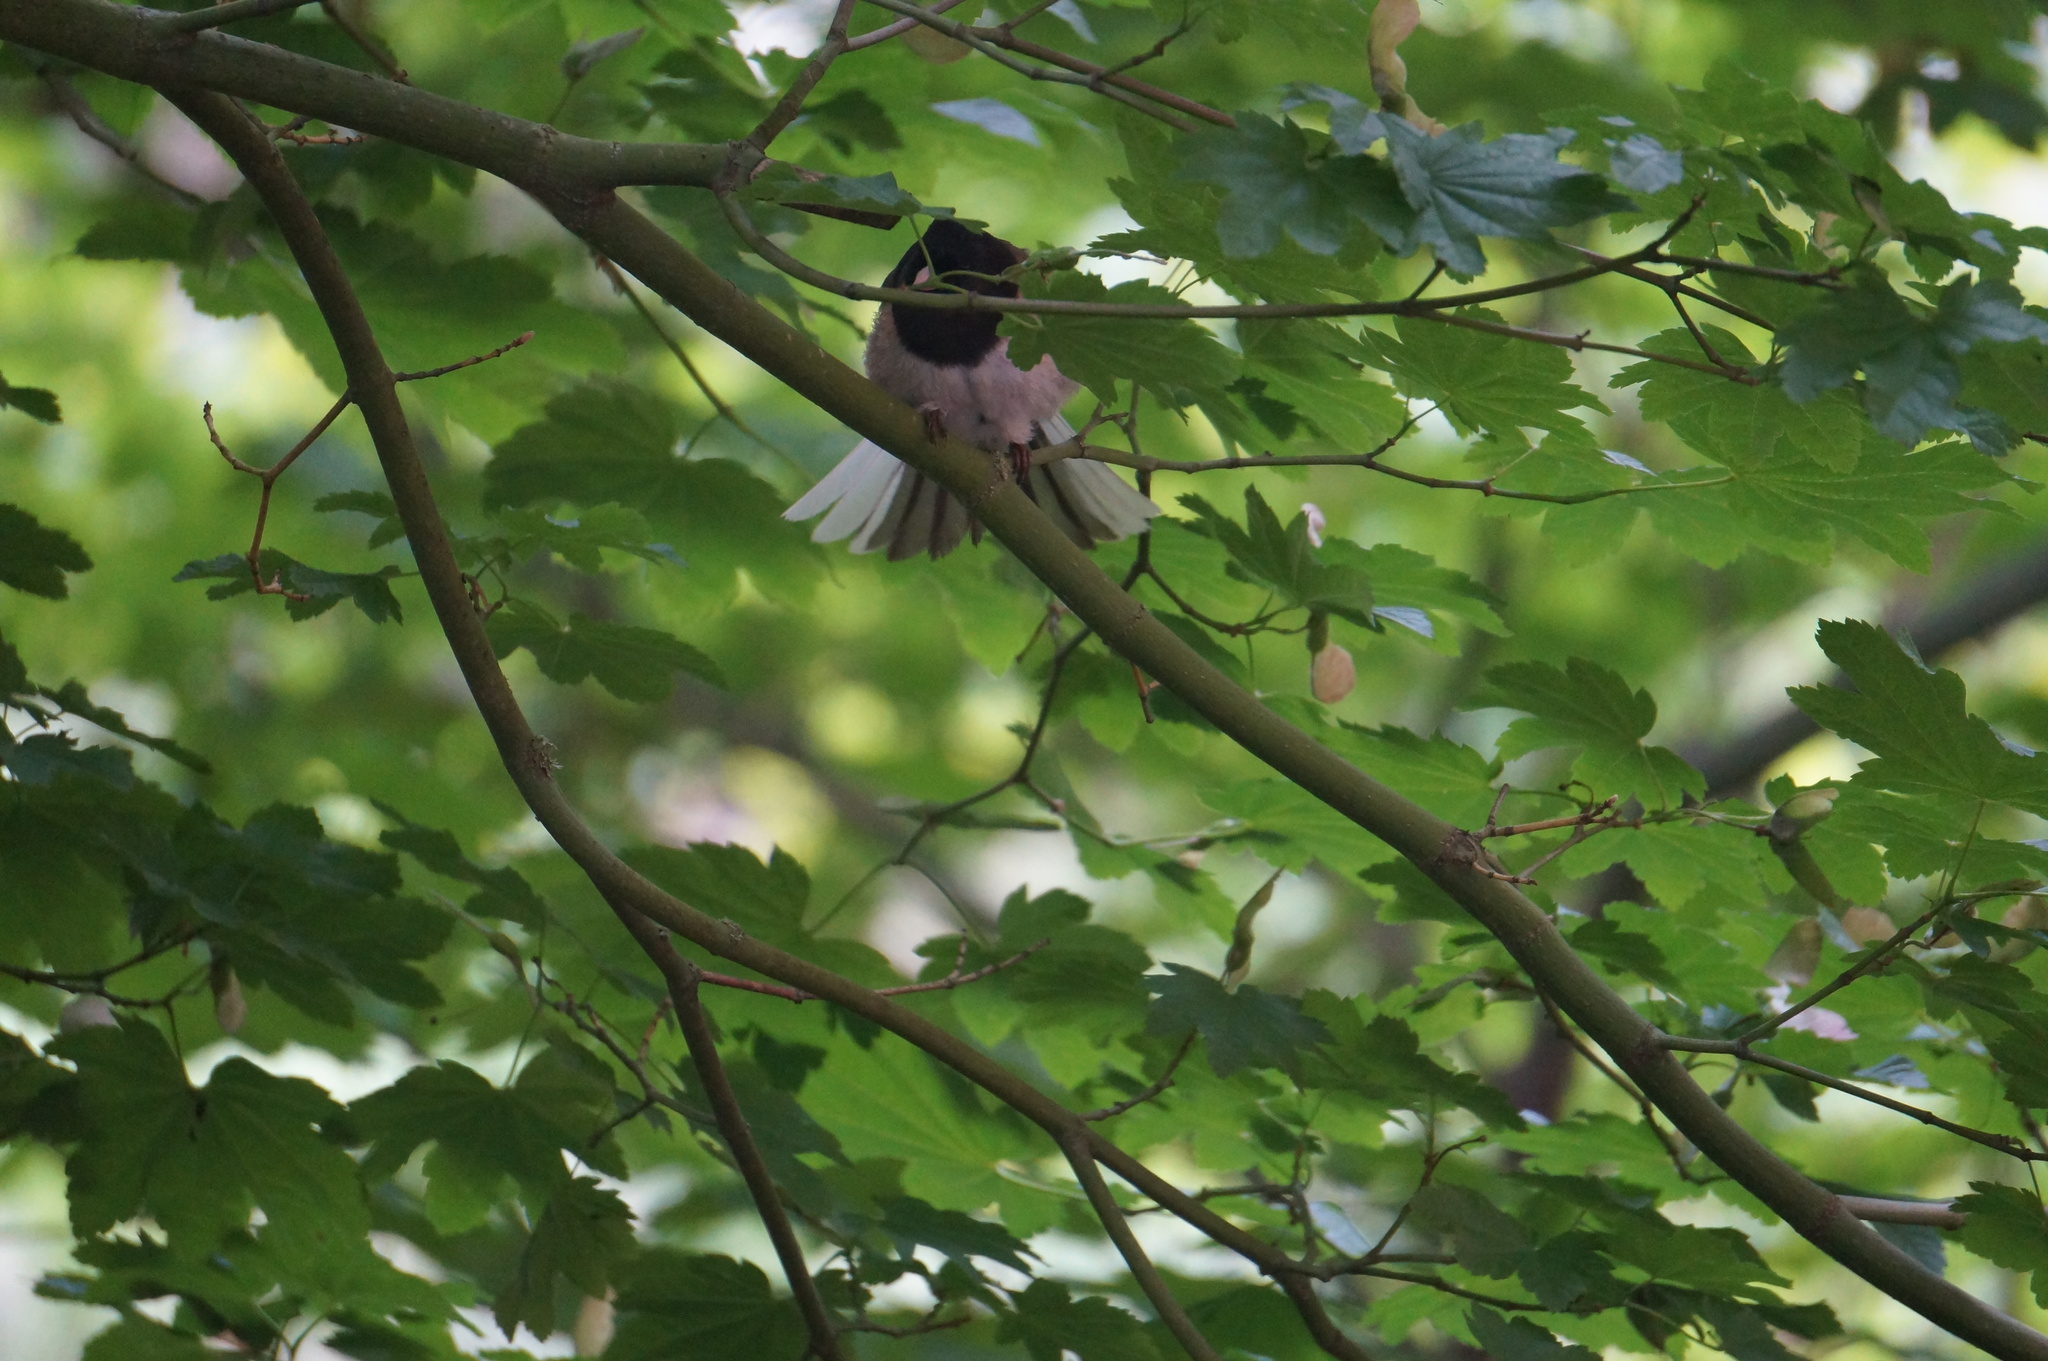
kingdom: Animalia
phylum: Chordata
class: Aves
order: Passeriformes
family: Passerellidae
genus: Junco
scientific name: Junco hyemalis
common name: Dark-eyed junco
